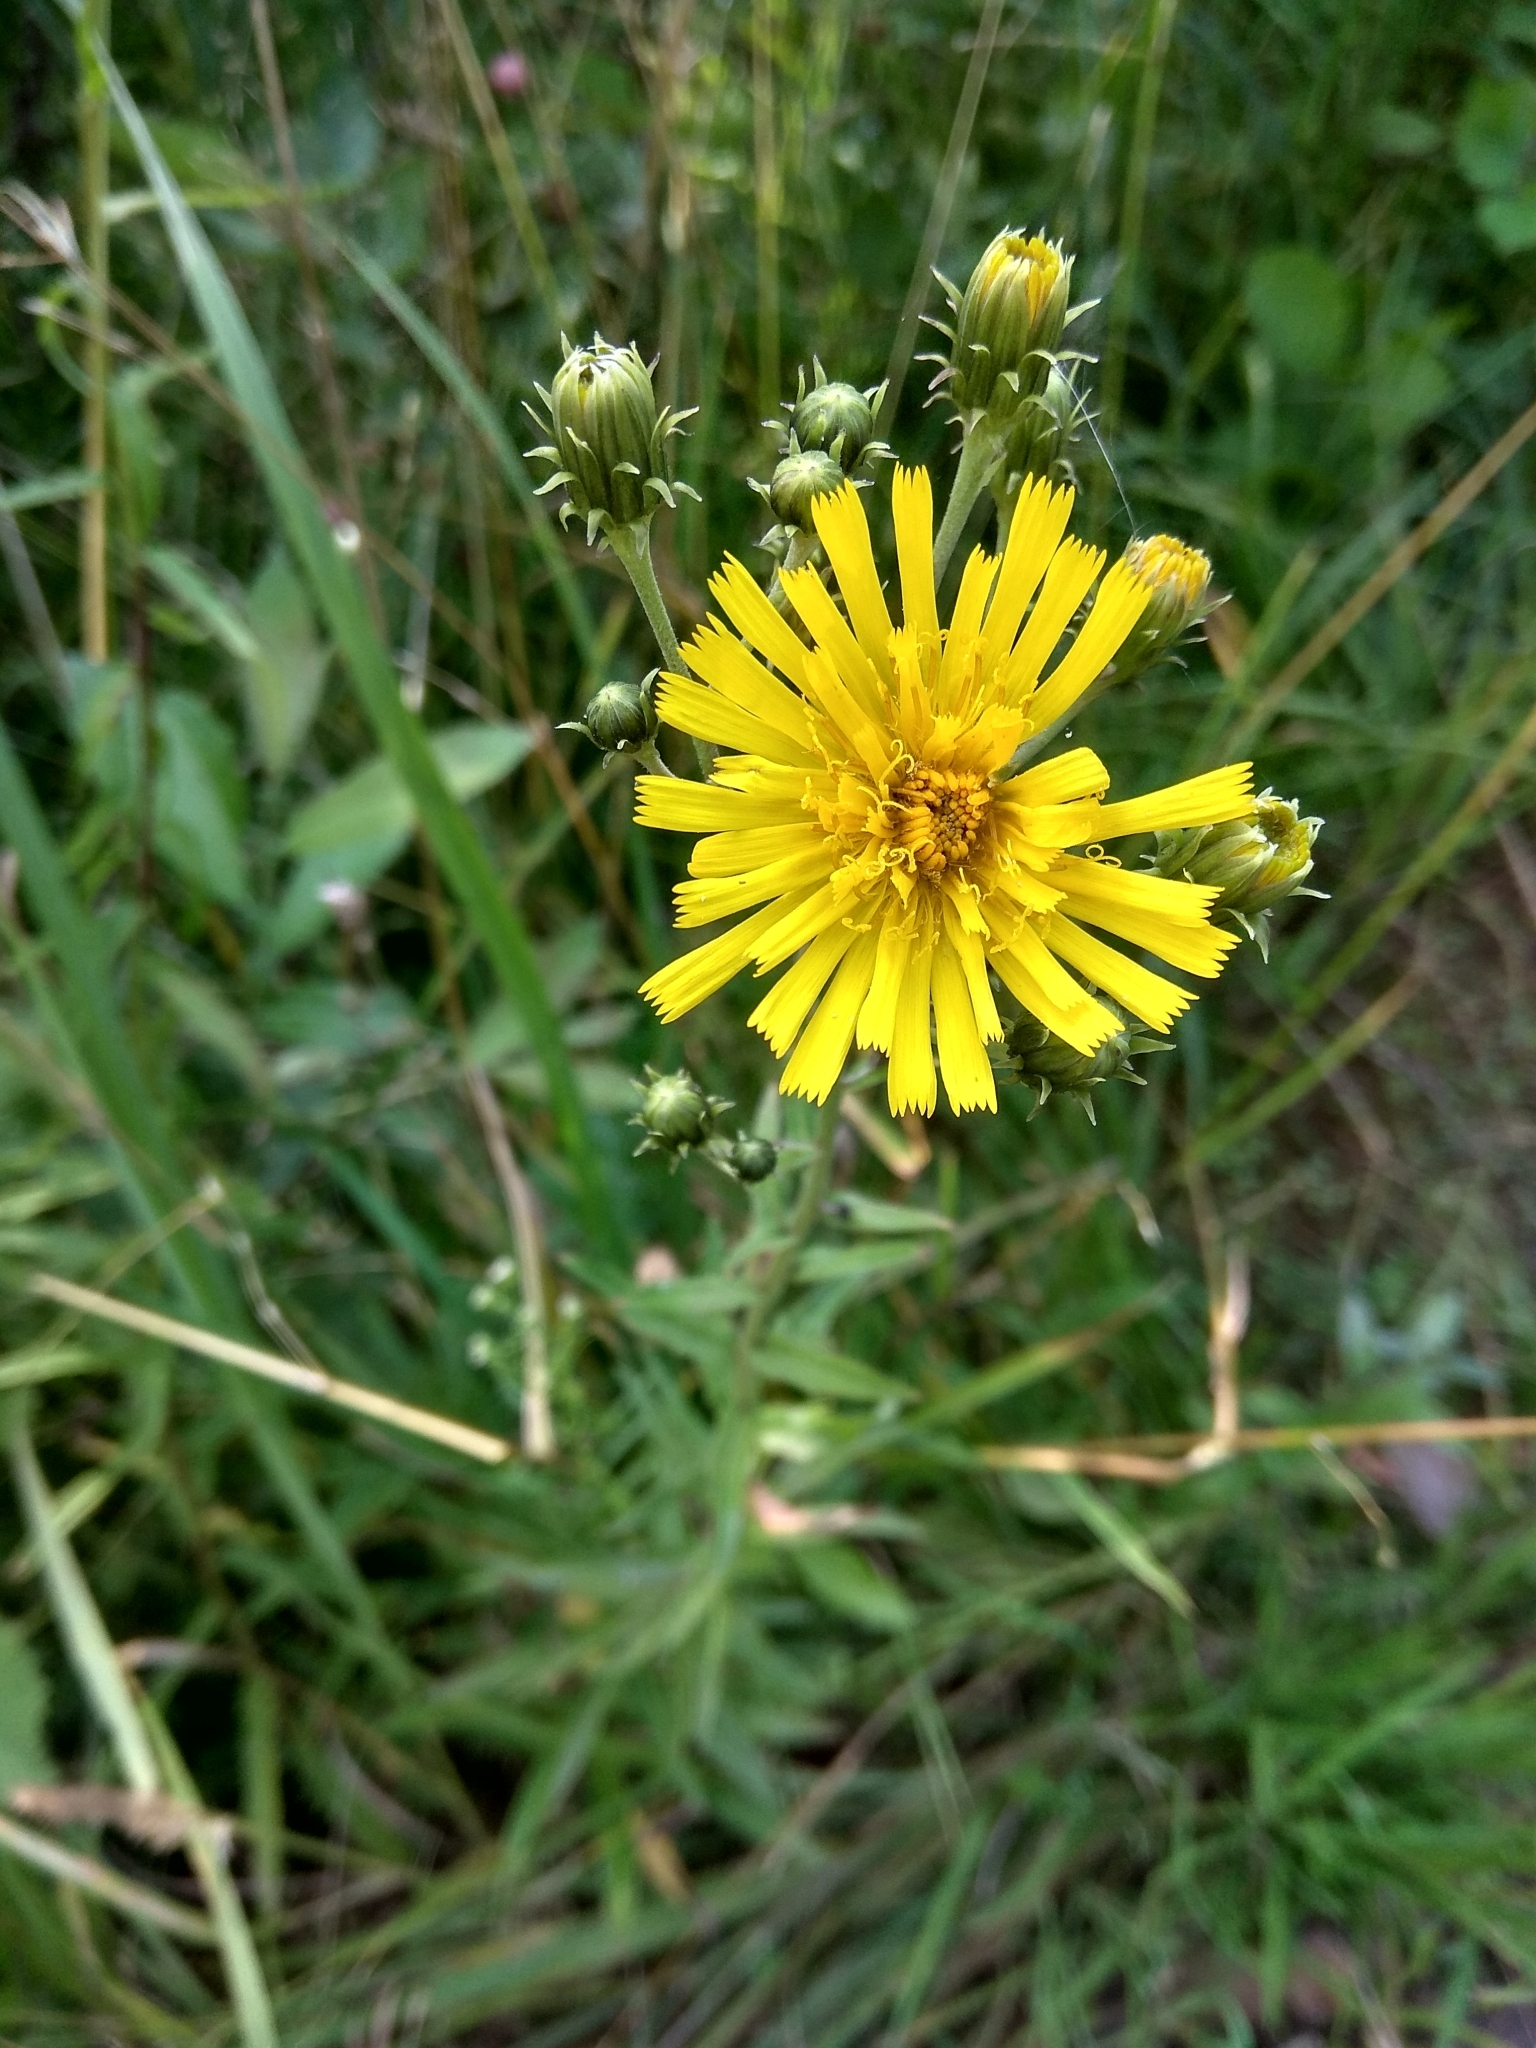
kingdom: Plantae
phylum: Tracheophyta
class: Magnoliopsida
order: Asterales
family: Asteraceae
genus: Hieracium
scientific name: Hieracium umbellatum
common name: Northern hawkweed
